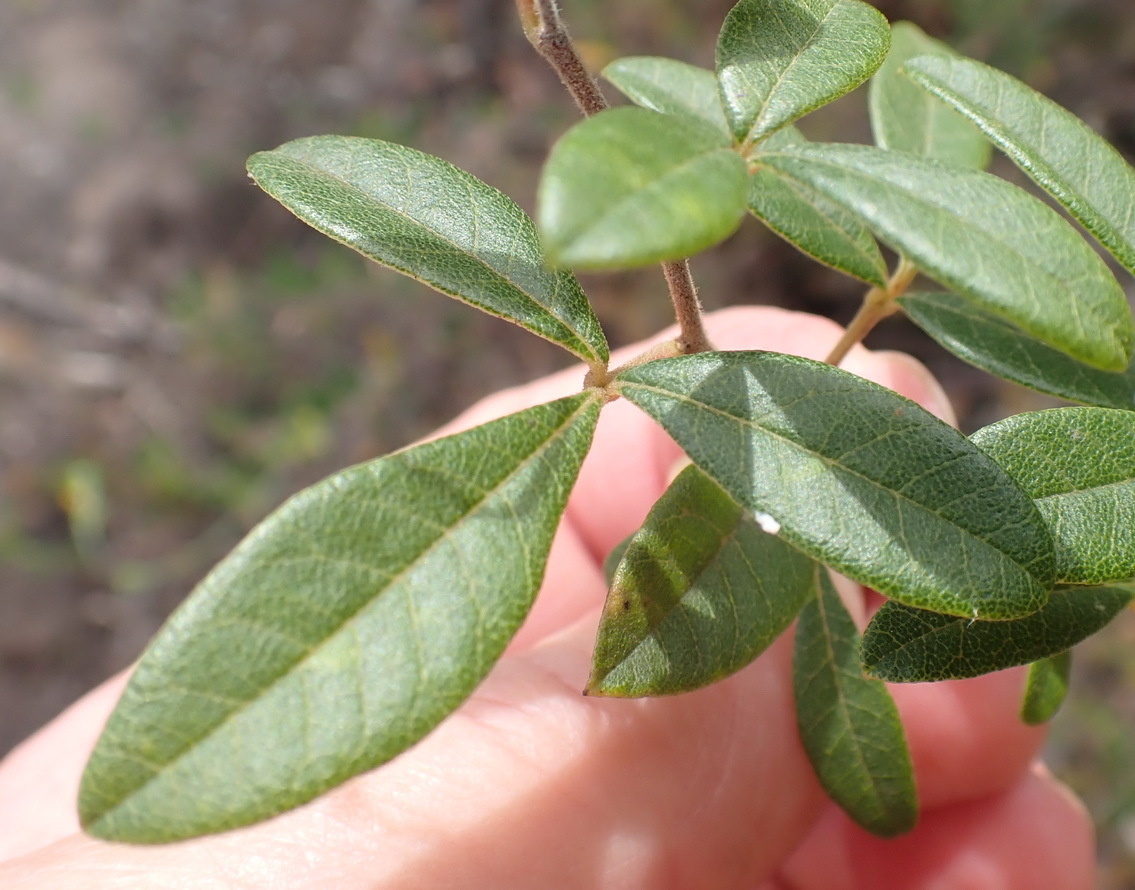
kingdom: Plantae
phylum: Tracheophyta
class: Magnoliopsida
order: Sapindales
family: Anacardiaceae
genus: Searsia
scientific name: Searsia tomentosa
